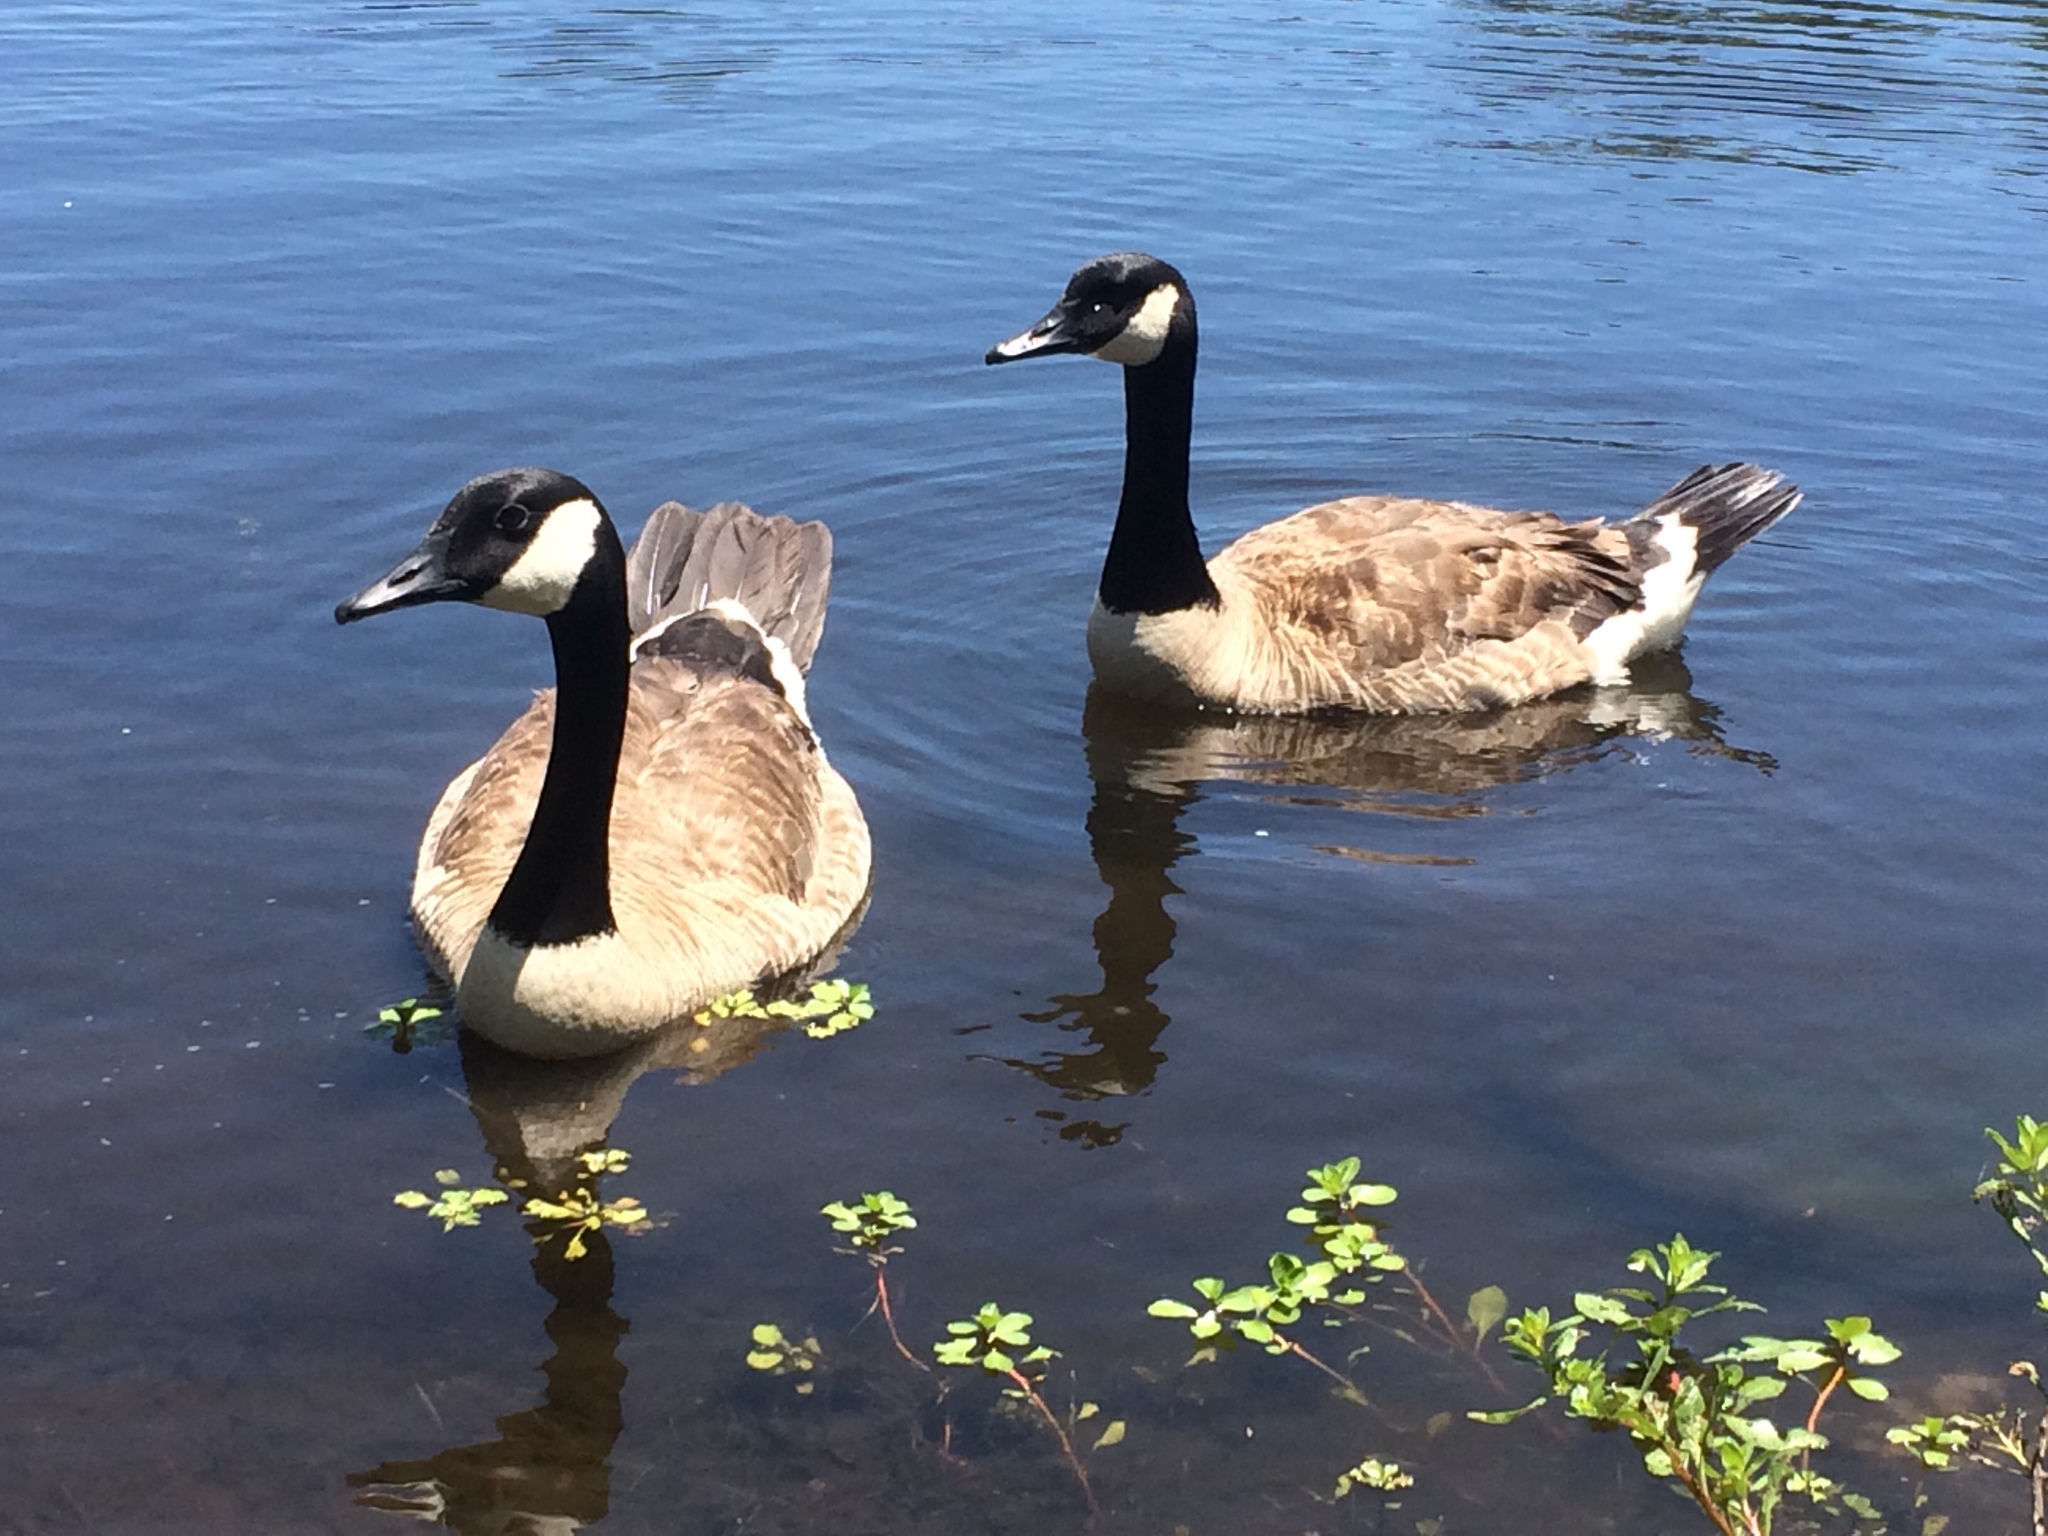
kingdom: Animalia
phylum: Chordata
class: Aves
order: Anseriformes
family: Anatidae
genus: Branta
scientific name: Branta canadensis
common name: Canada goose
